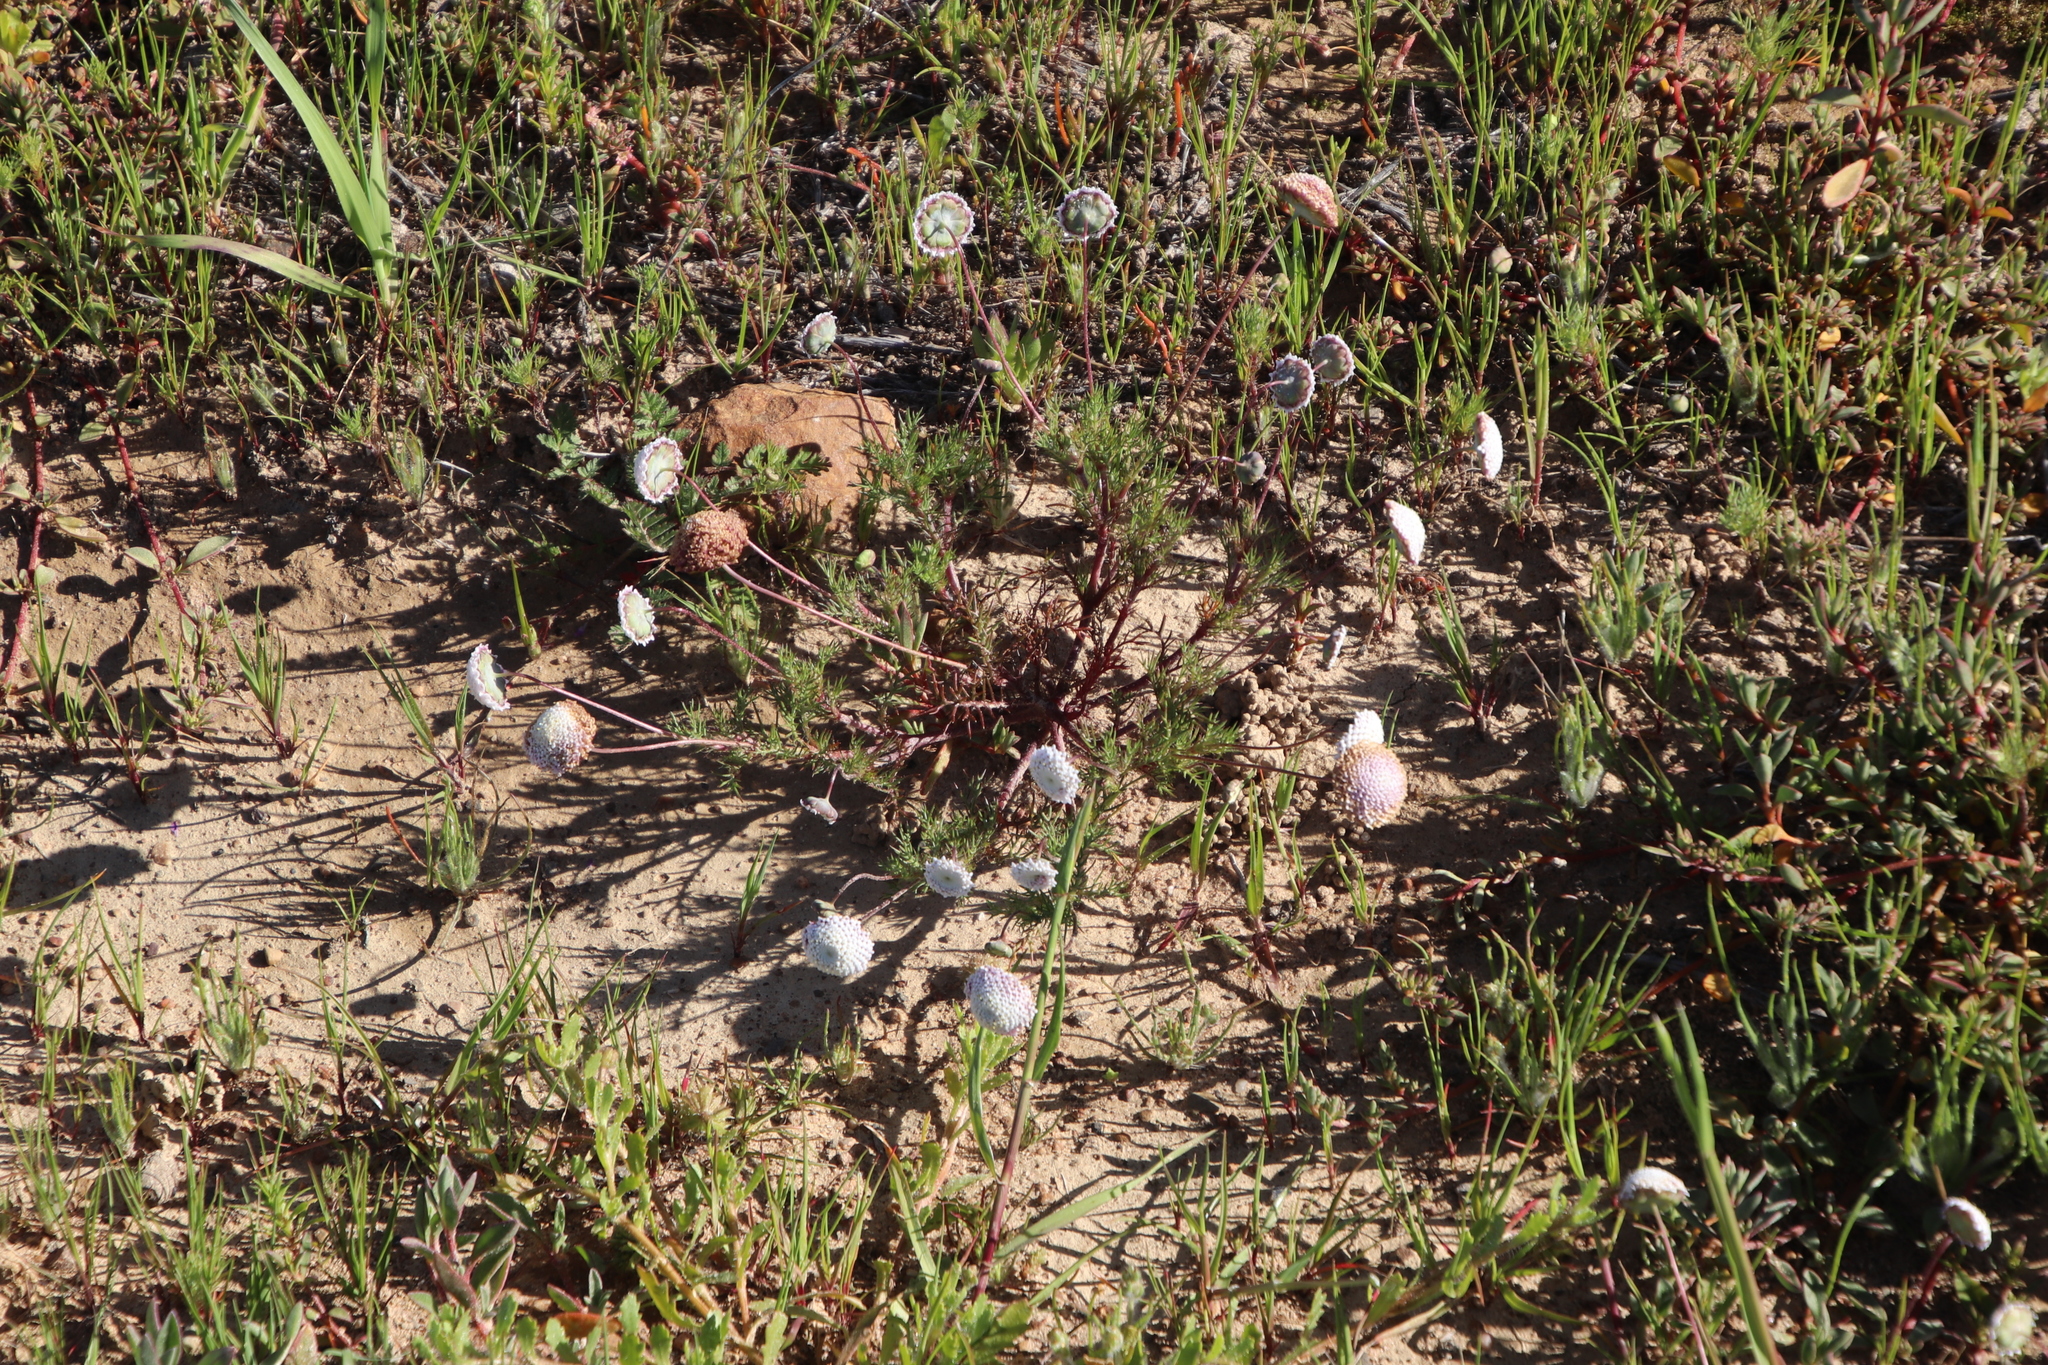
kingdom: Plantae
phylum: Tracheophyta
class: Magnoliopsida
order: Asterales
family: Asteraceae
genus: Cotula
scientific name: Cotula nudicaulis
